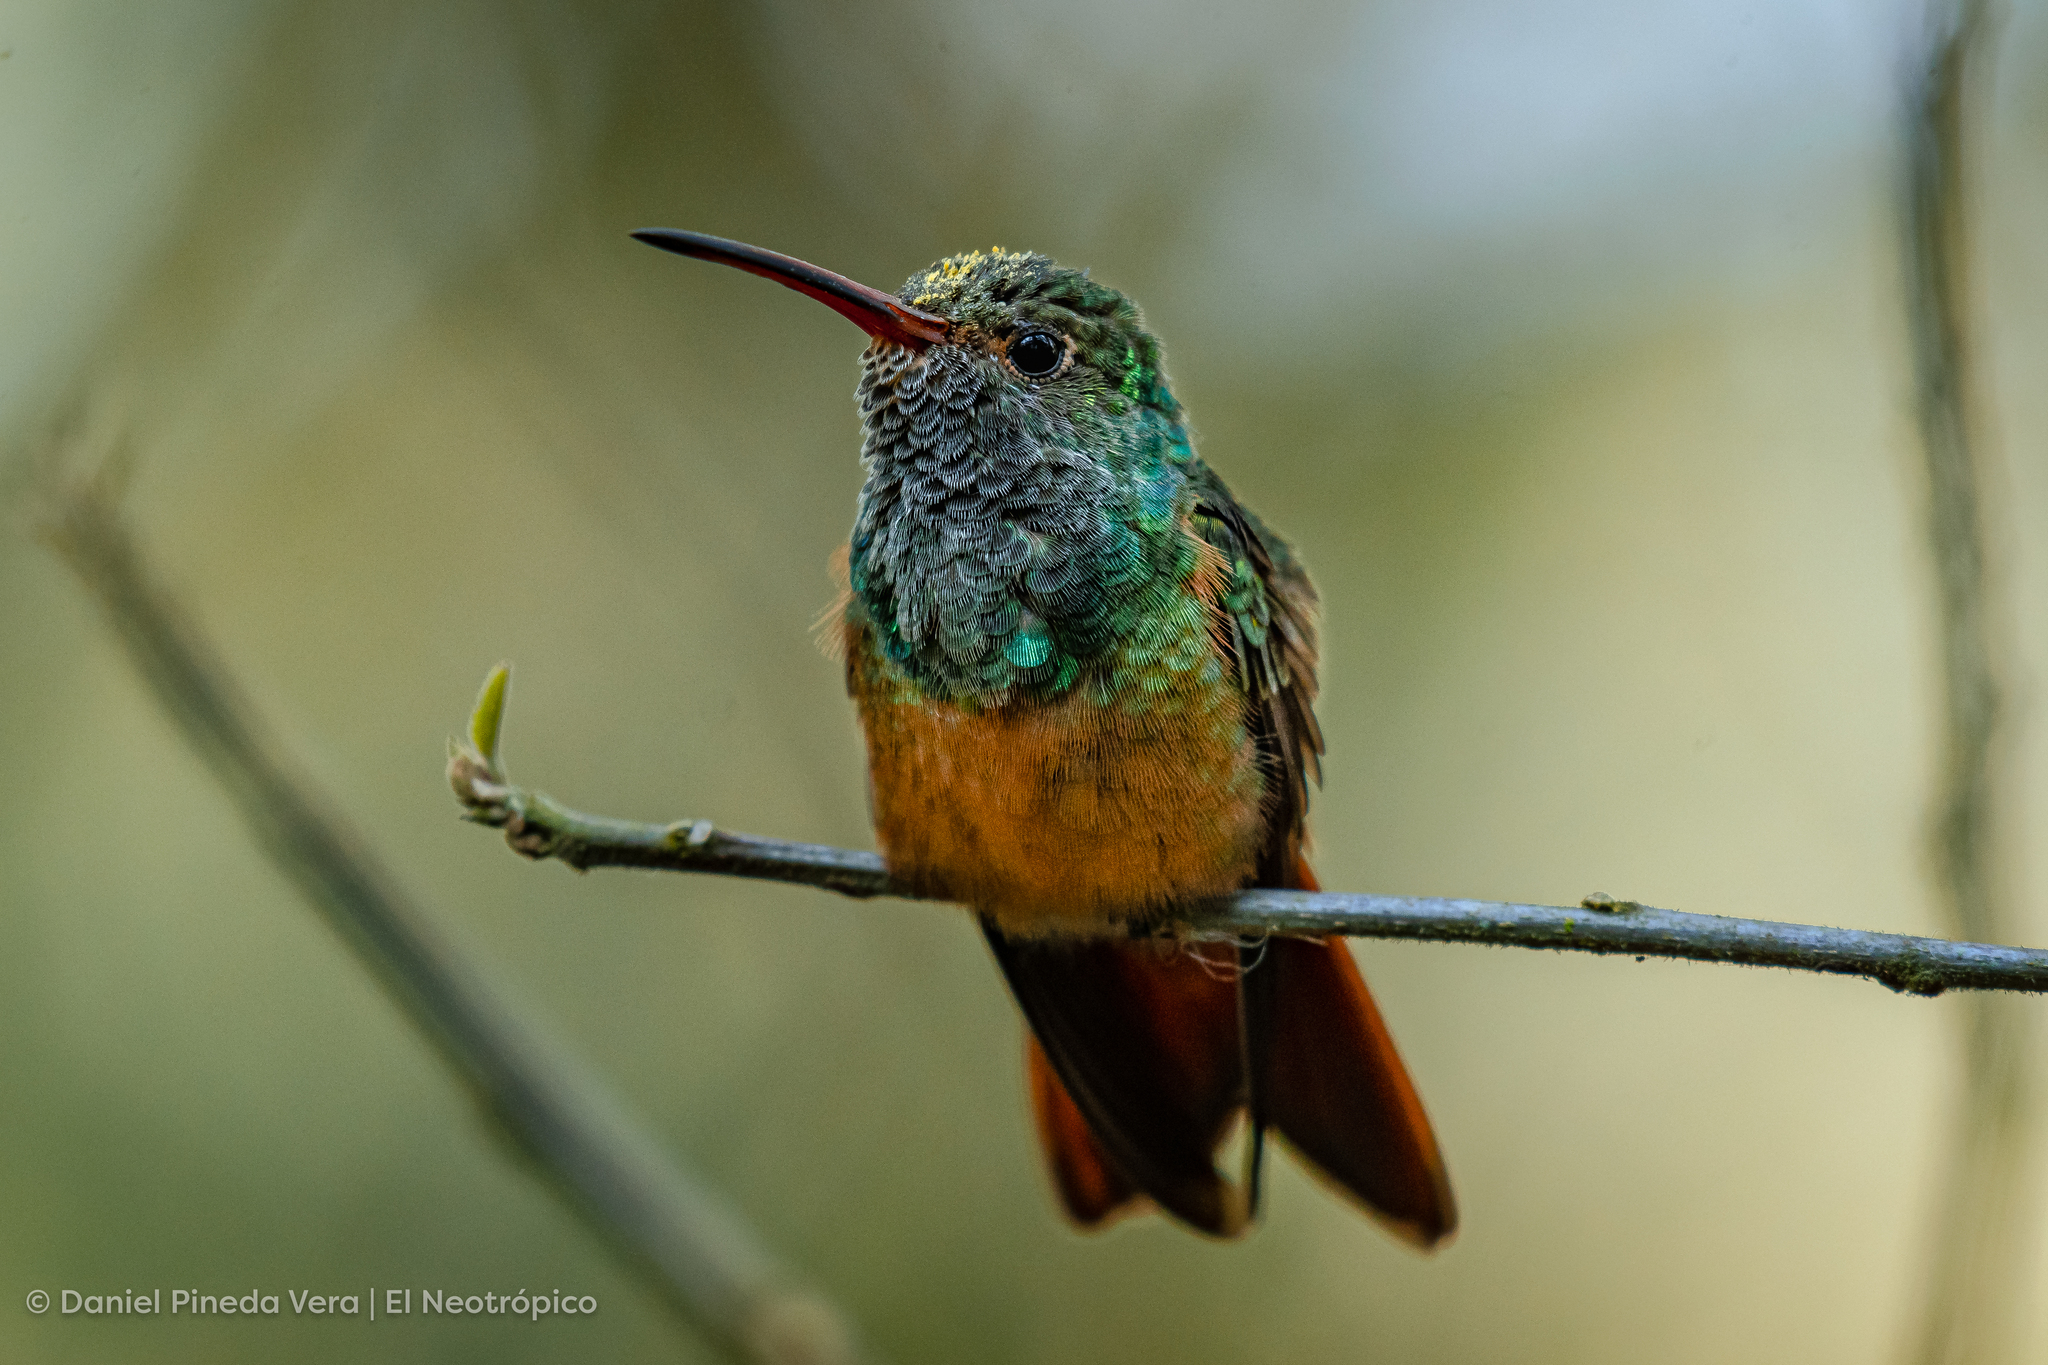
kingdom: Animalia
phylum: Chordata
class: Aves
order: Apodiformes
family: Trochilidae
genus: Amazilia
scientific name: Amazilia yucatanensis
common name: Buff-bellied hummingbird
